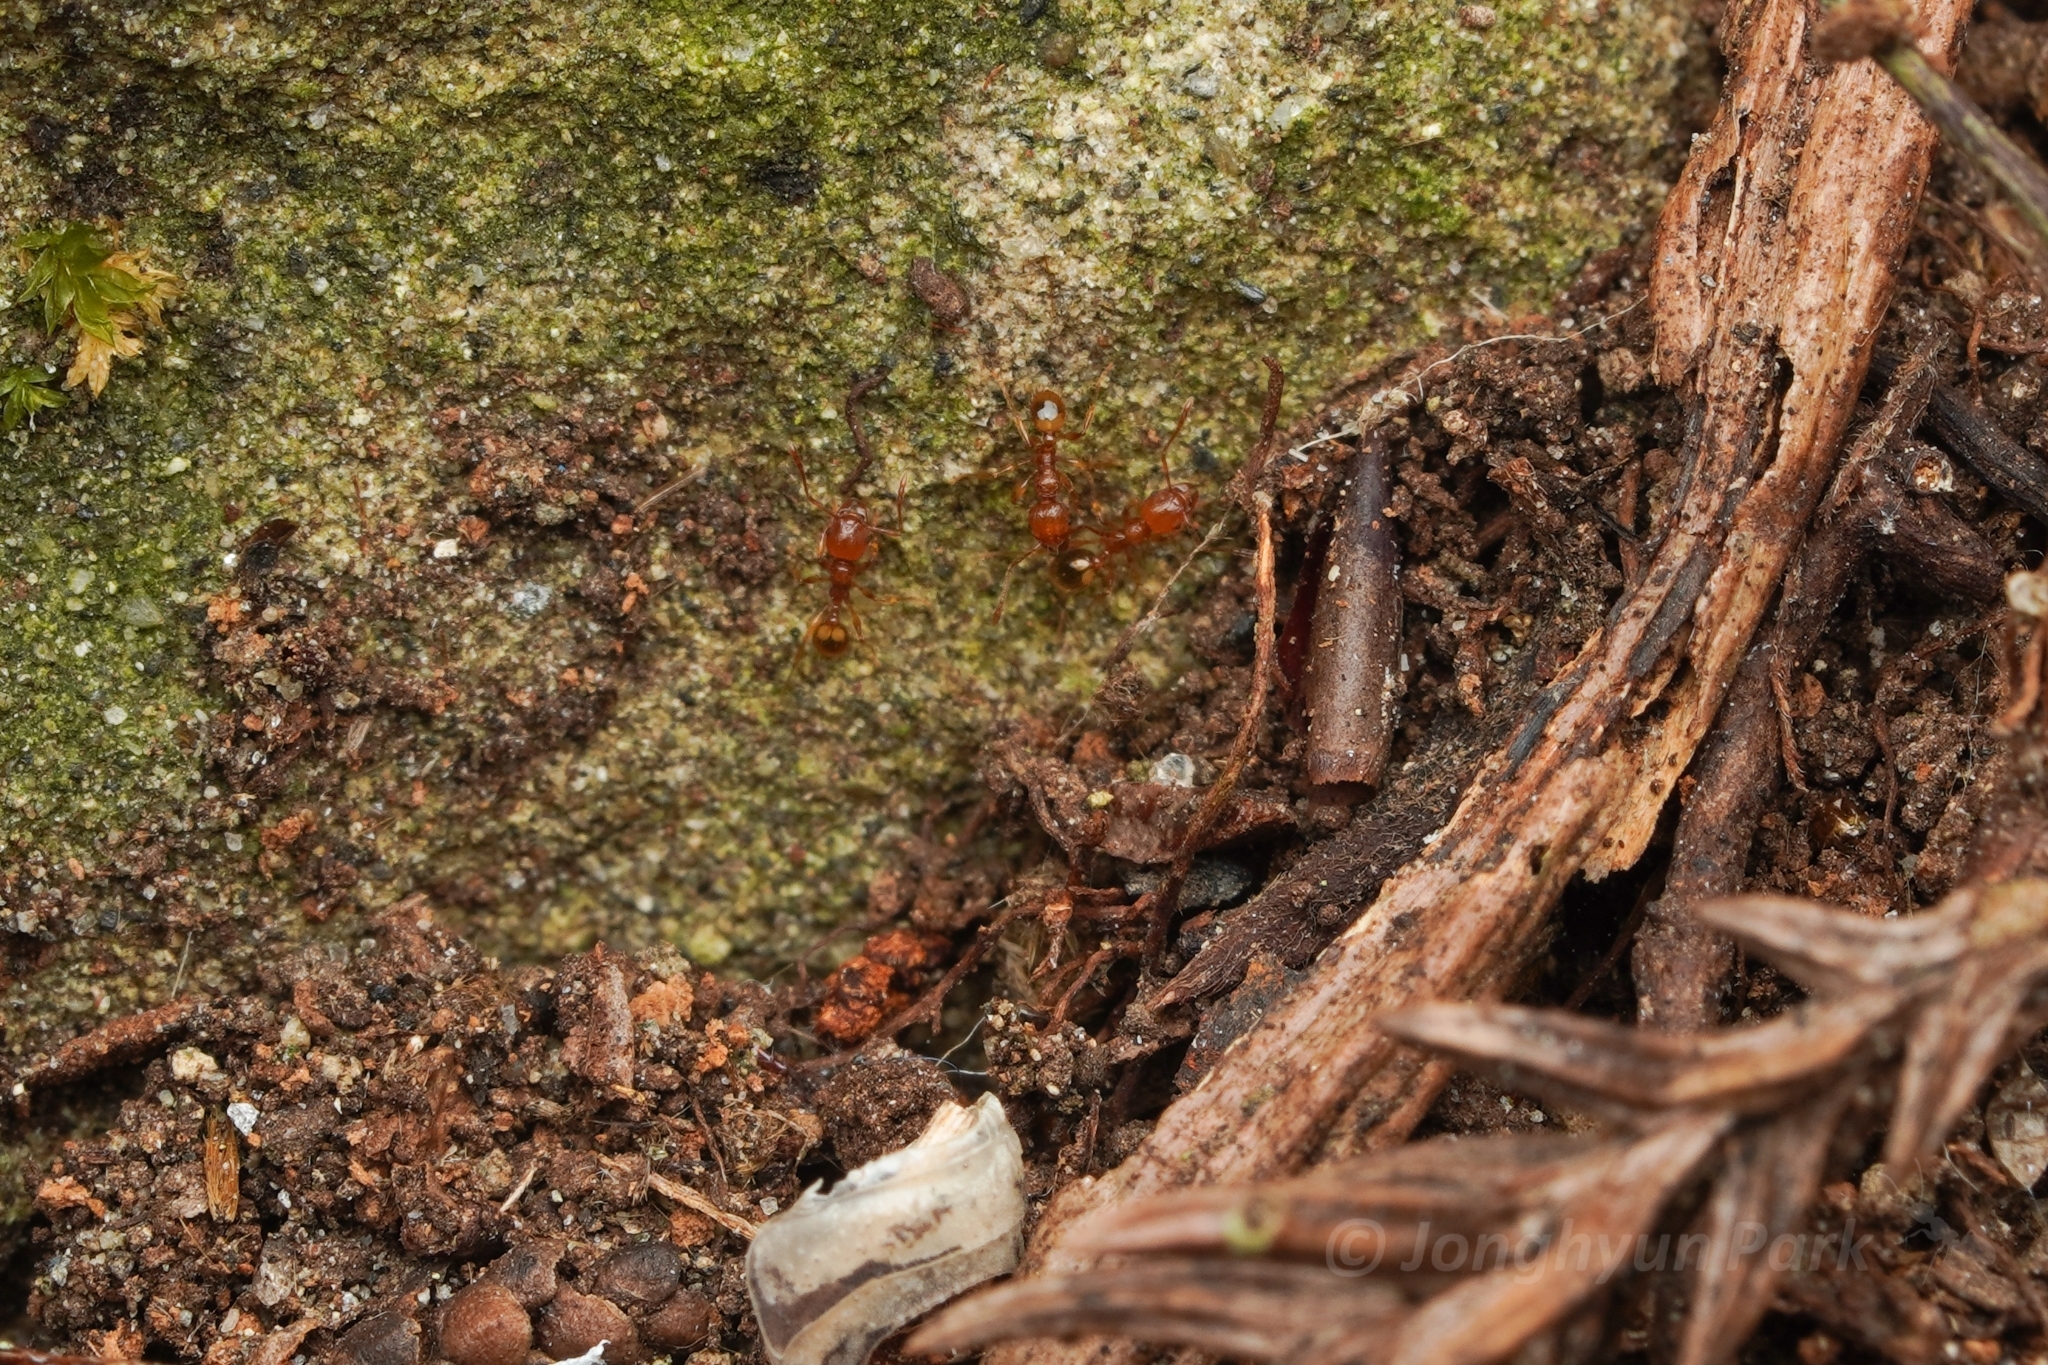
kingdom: Animalia
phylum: Arthropoda
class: Insecta
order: Hymenoptera
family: Formicidae
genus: Pheidole
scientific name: Pheidole fervida
